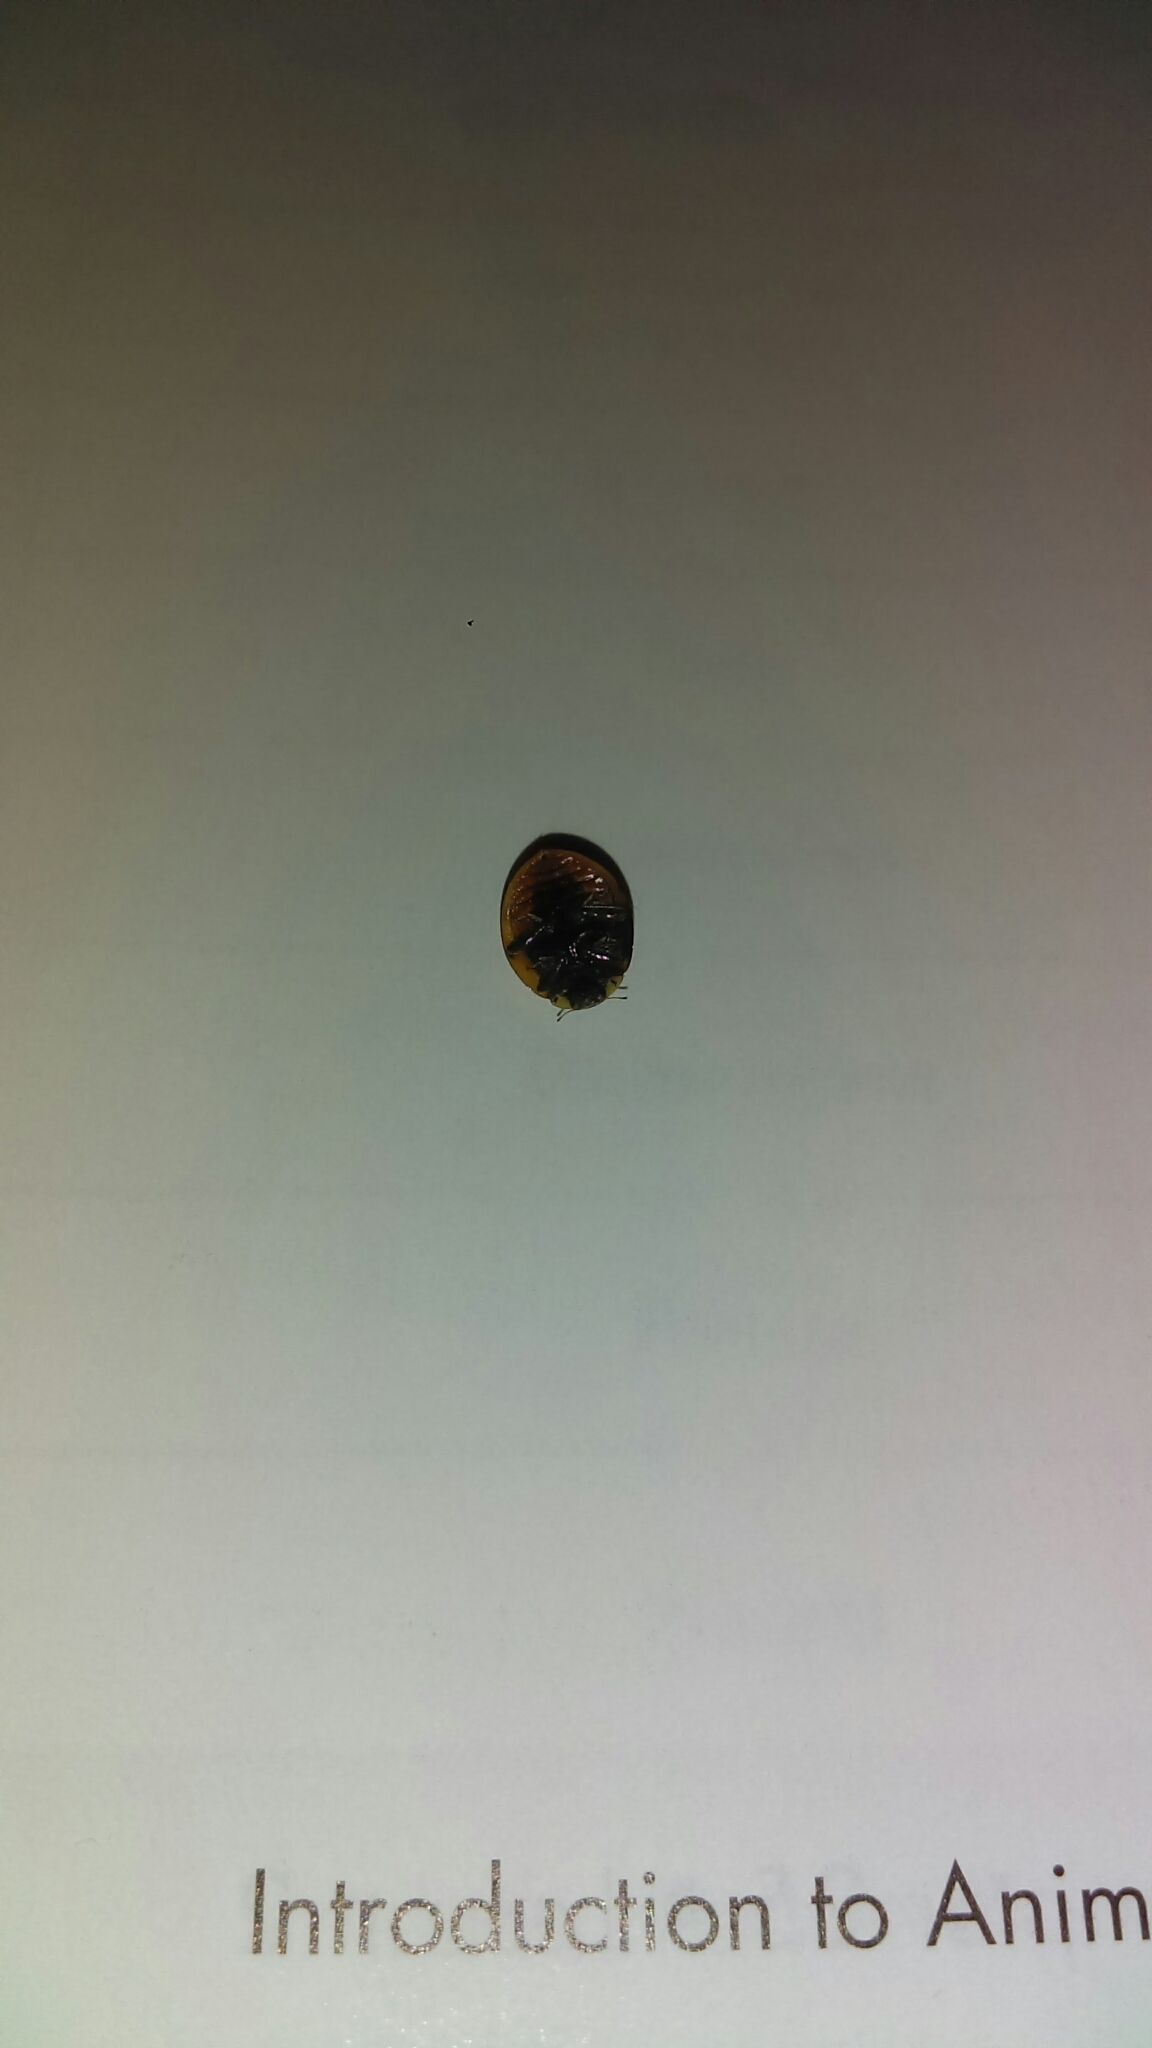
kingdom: Animalia
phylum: Arthropoda
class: Insecta
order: Coleoptera
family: Coccinellidae
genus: Harmonia
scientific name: Harmonia axyridis
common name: Harlequin ladybird
